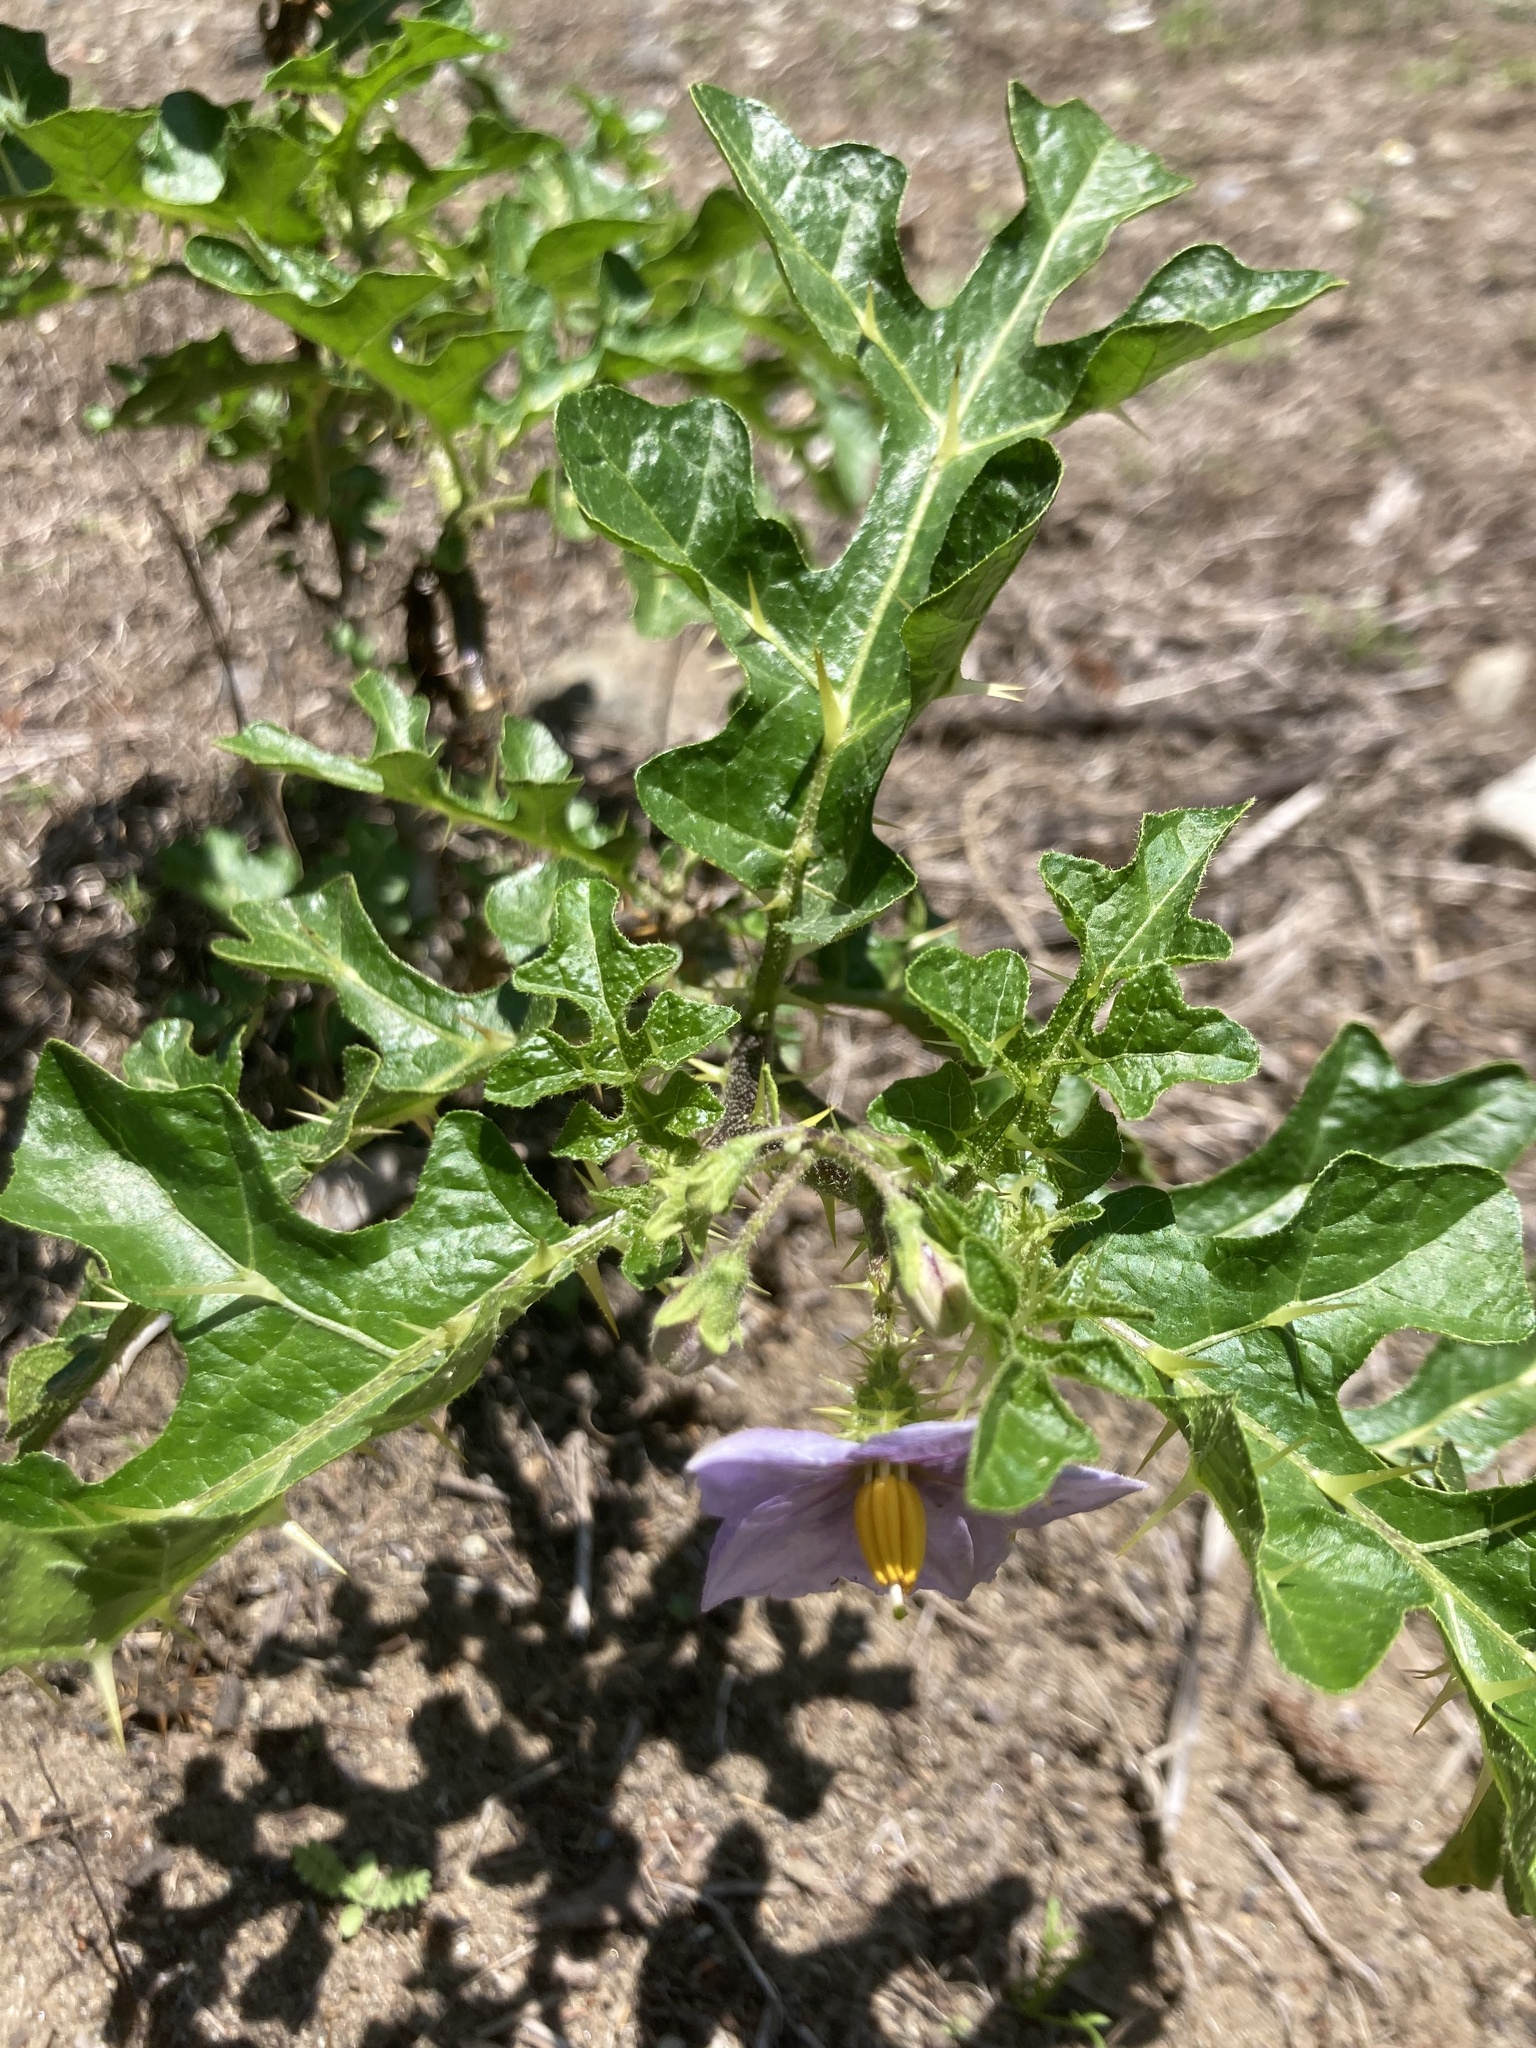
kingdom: Plantae
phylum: Tracheophyta
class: Magnoliopsida
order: Solanales
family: Solanaceae
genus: Solanum
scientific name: Solanum linnaeanum
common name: Nightshade
